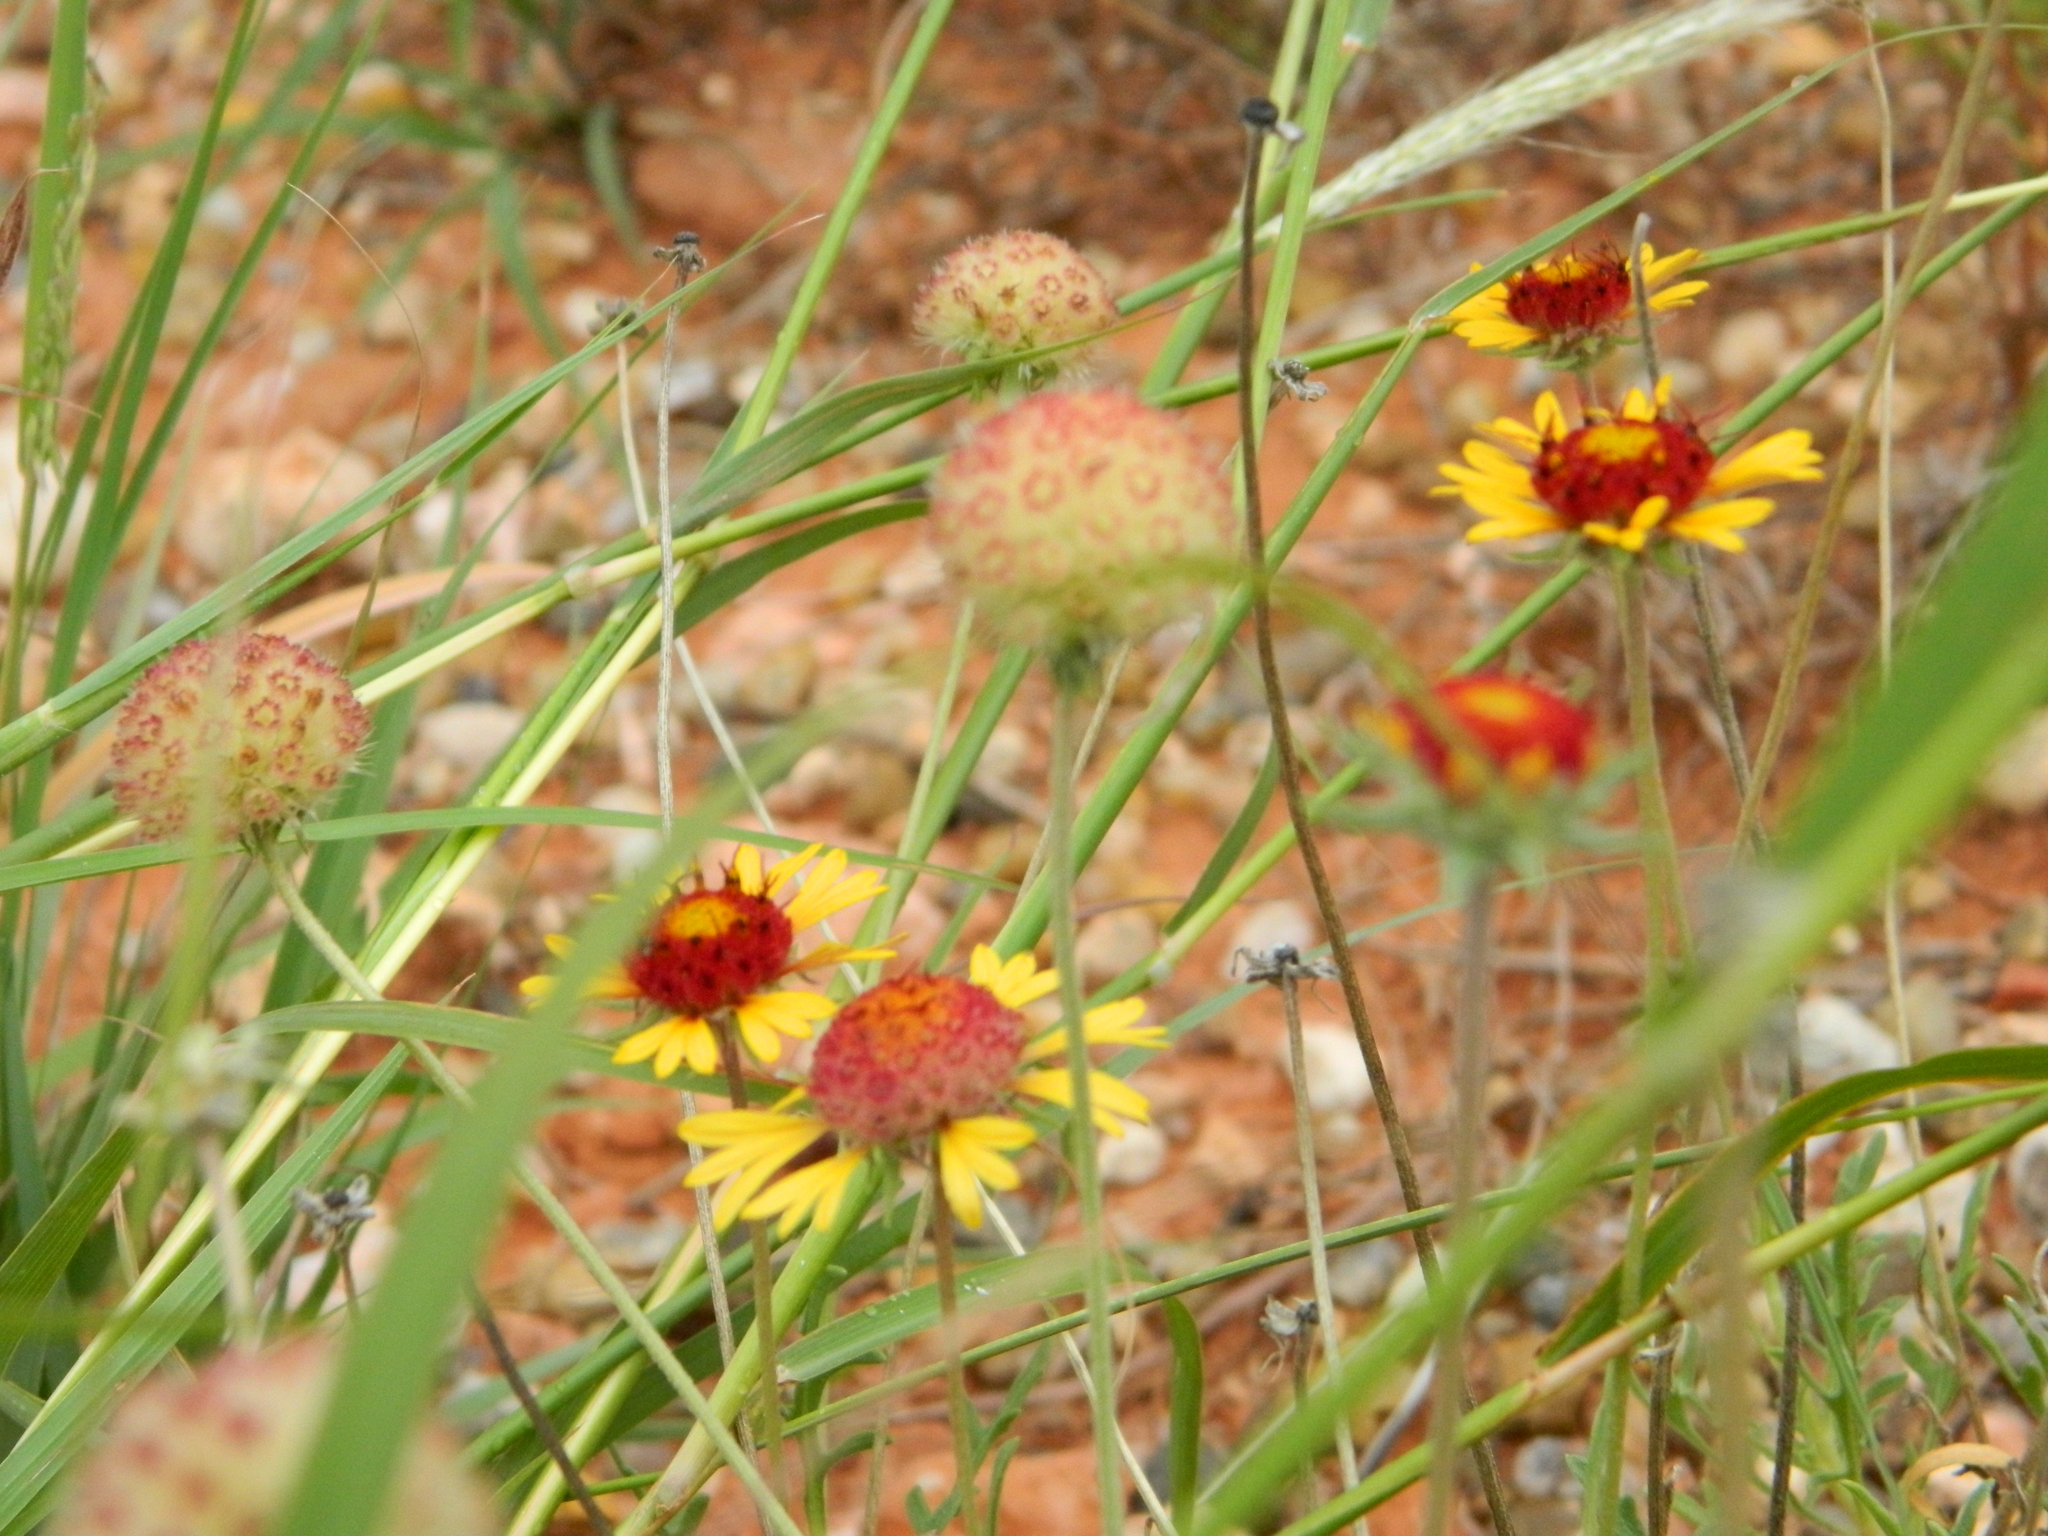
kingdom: Plantae
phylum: Tracheophyta
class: Magnoliopsida
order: Asterales
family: Asteraceae
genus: Gaillardia
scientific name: Gaillardia pinnatifida
